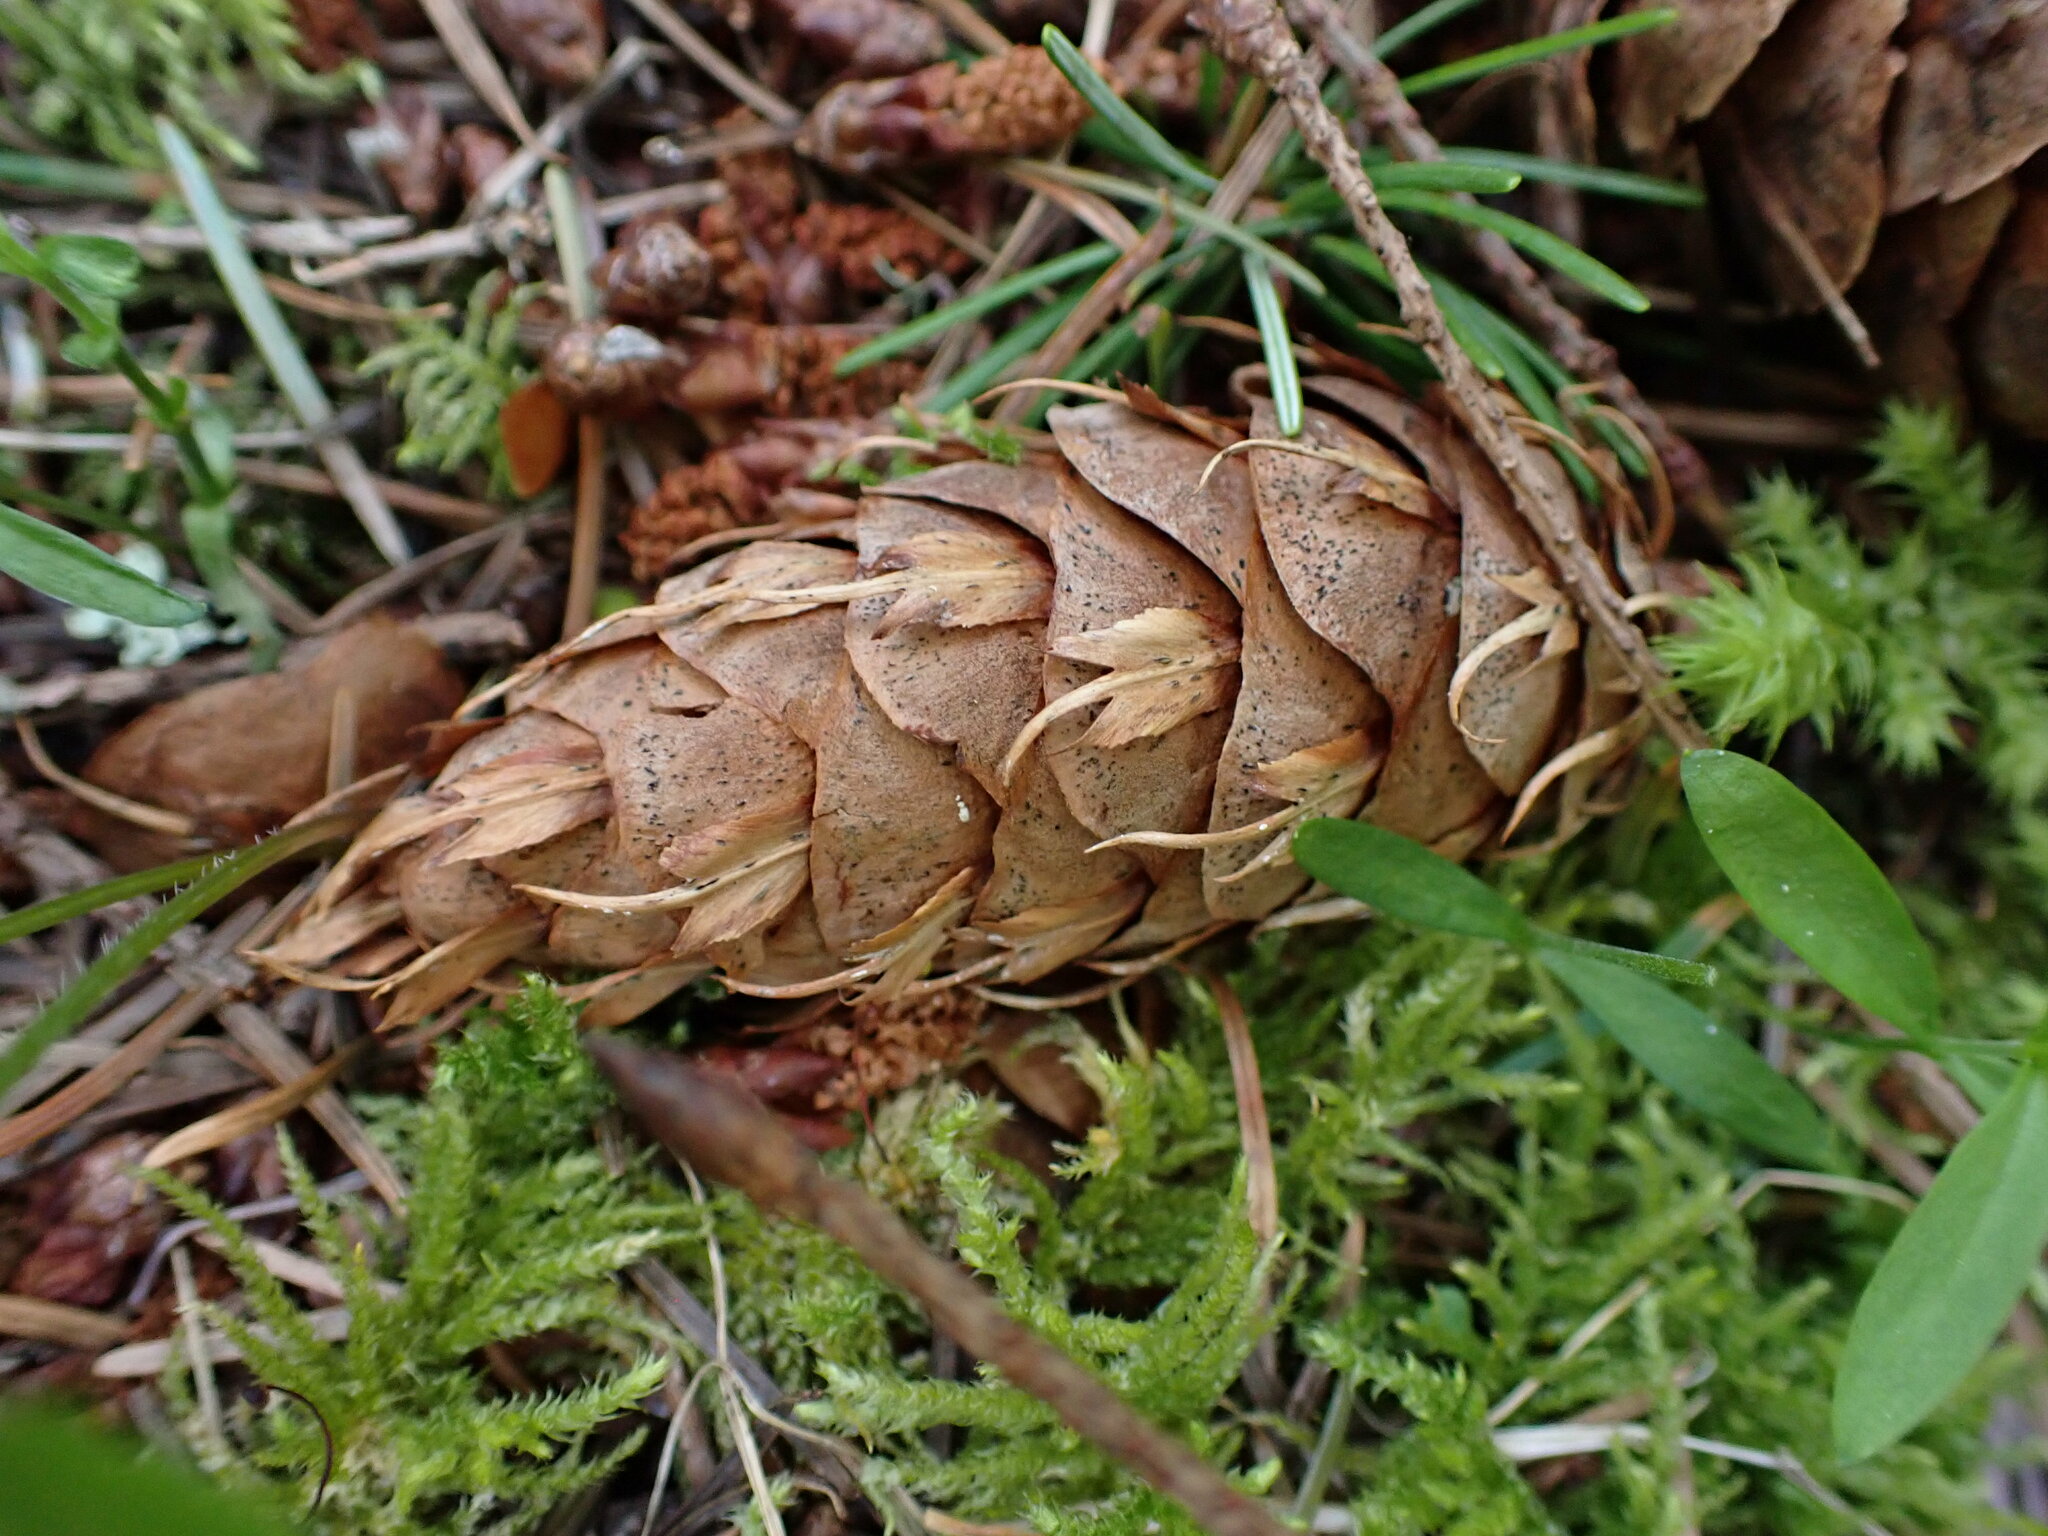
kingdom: Plantae
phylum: Tracheophyta
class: Pinopsida
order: Pinales
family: Pinaceae
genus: Pseudotsuga
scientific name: Pseudotsuga menziesii
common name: Douglas fir
